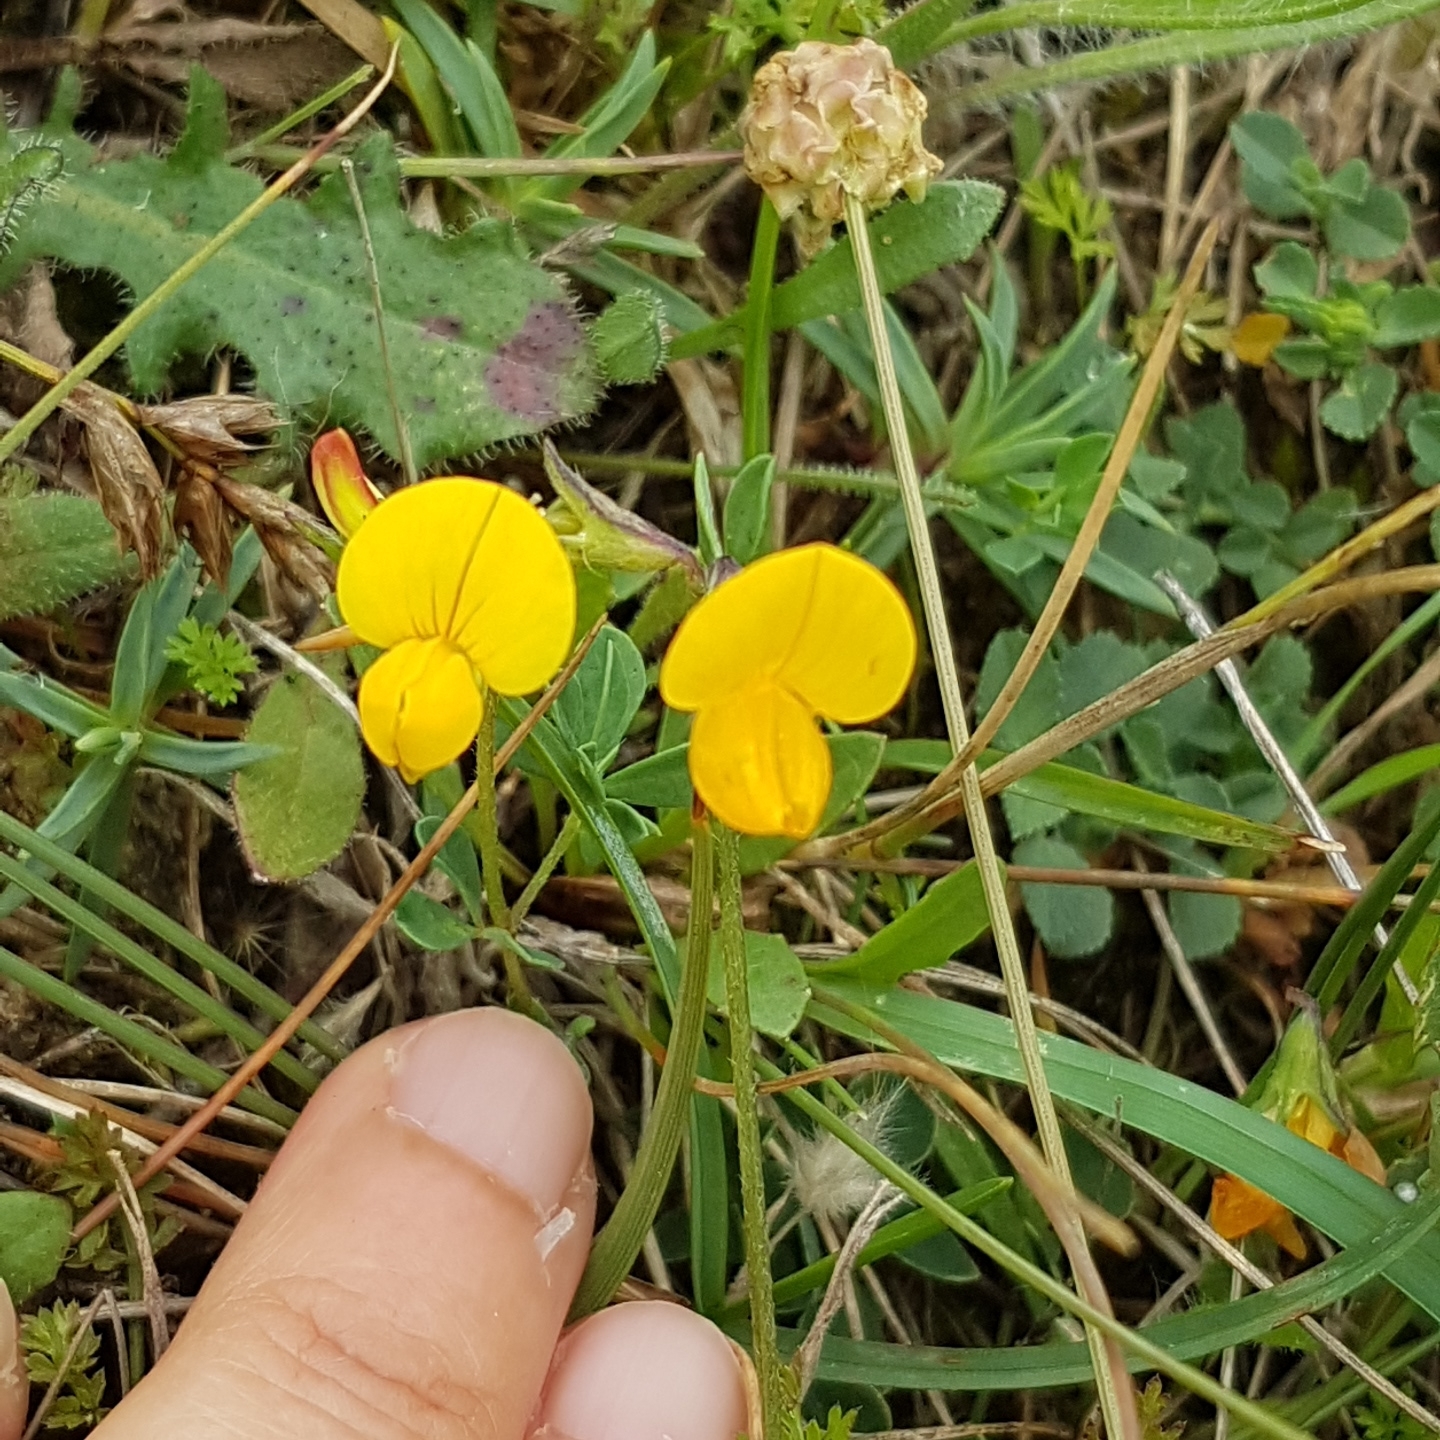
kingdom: Plantae
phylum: Tracheophyta
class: Magnoliopsida
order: Fabales
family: Fabaceae
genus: Lotus
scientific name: Lotus corniculatus
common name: Common bird's-foot-trefoil
